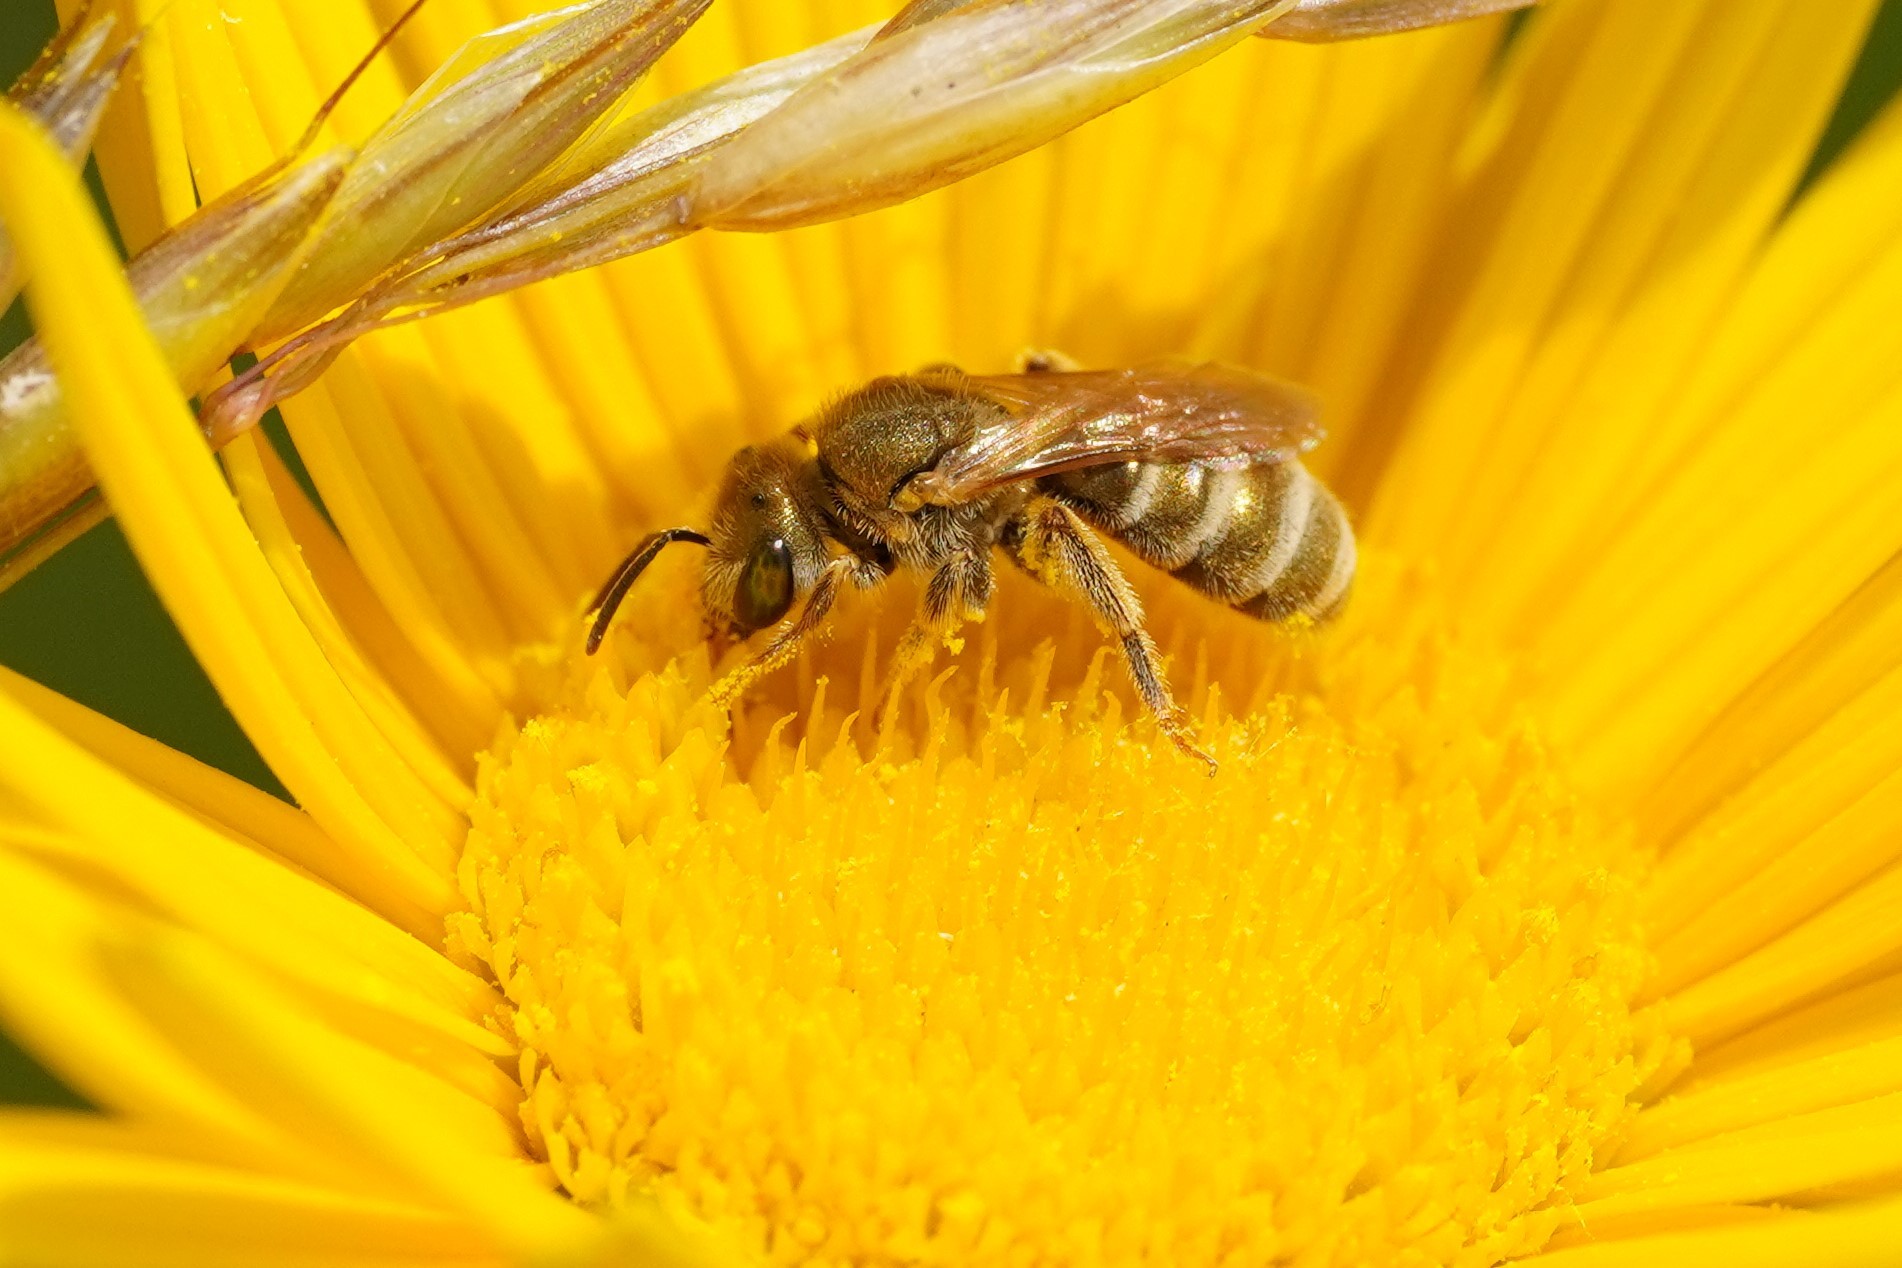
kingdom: Animalia
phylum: Arthropoda
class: Insecta
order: Hymenoptera
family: Halictidae
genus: Halictus
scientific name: Halictus subauratus
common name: Golden furrow bee
